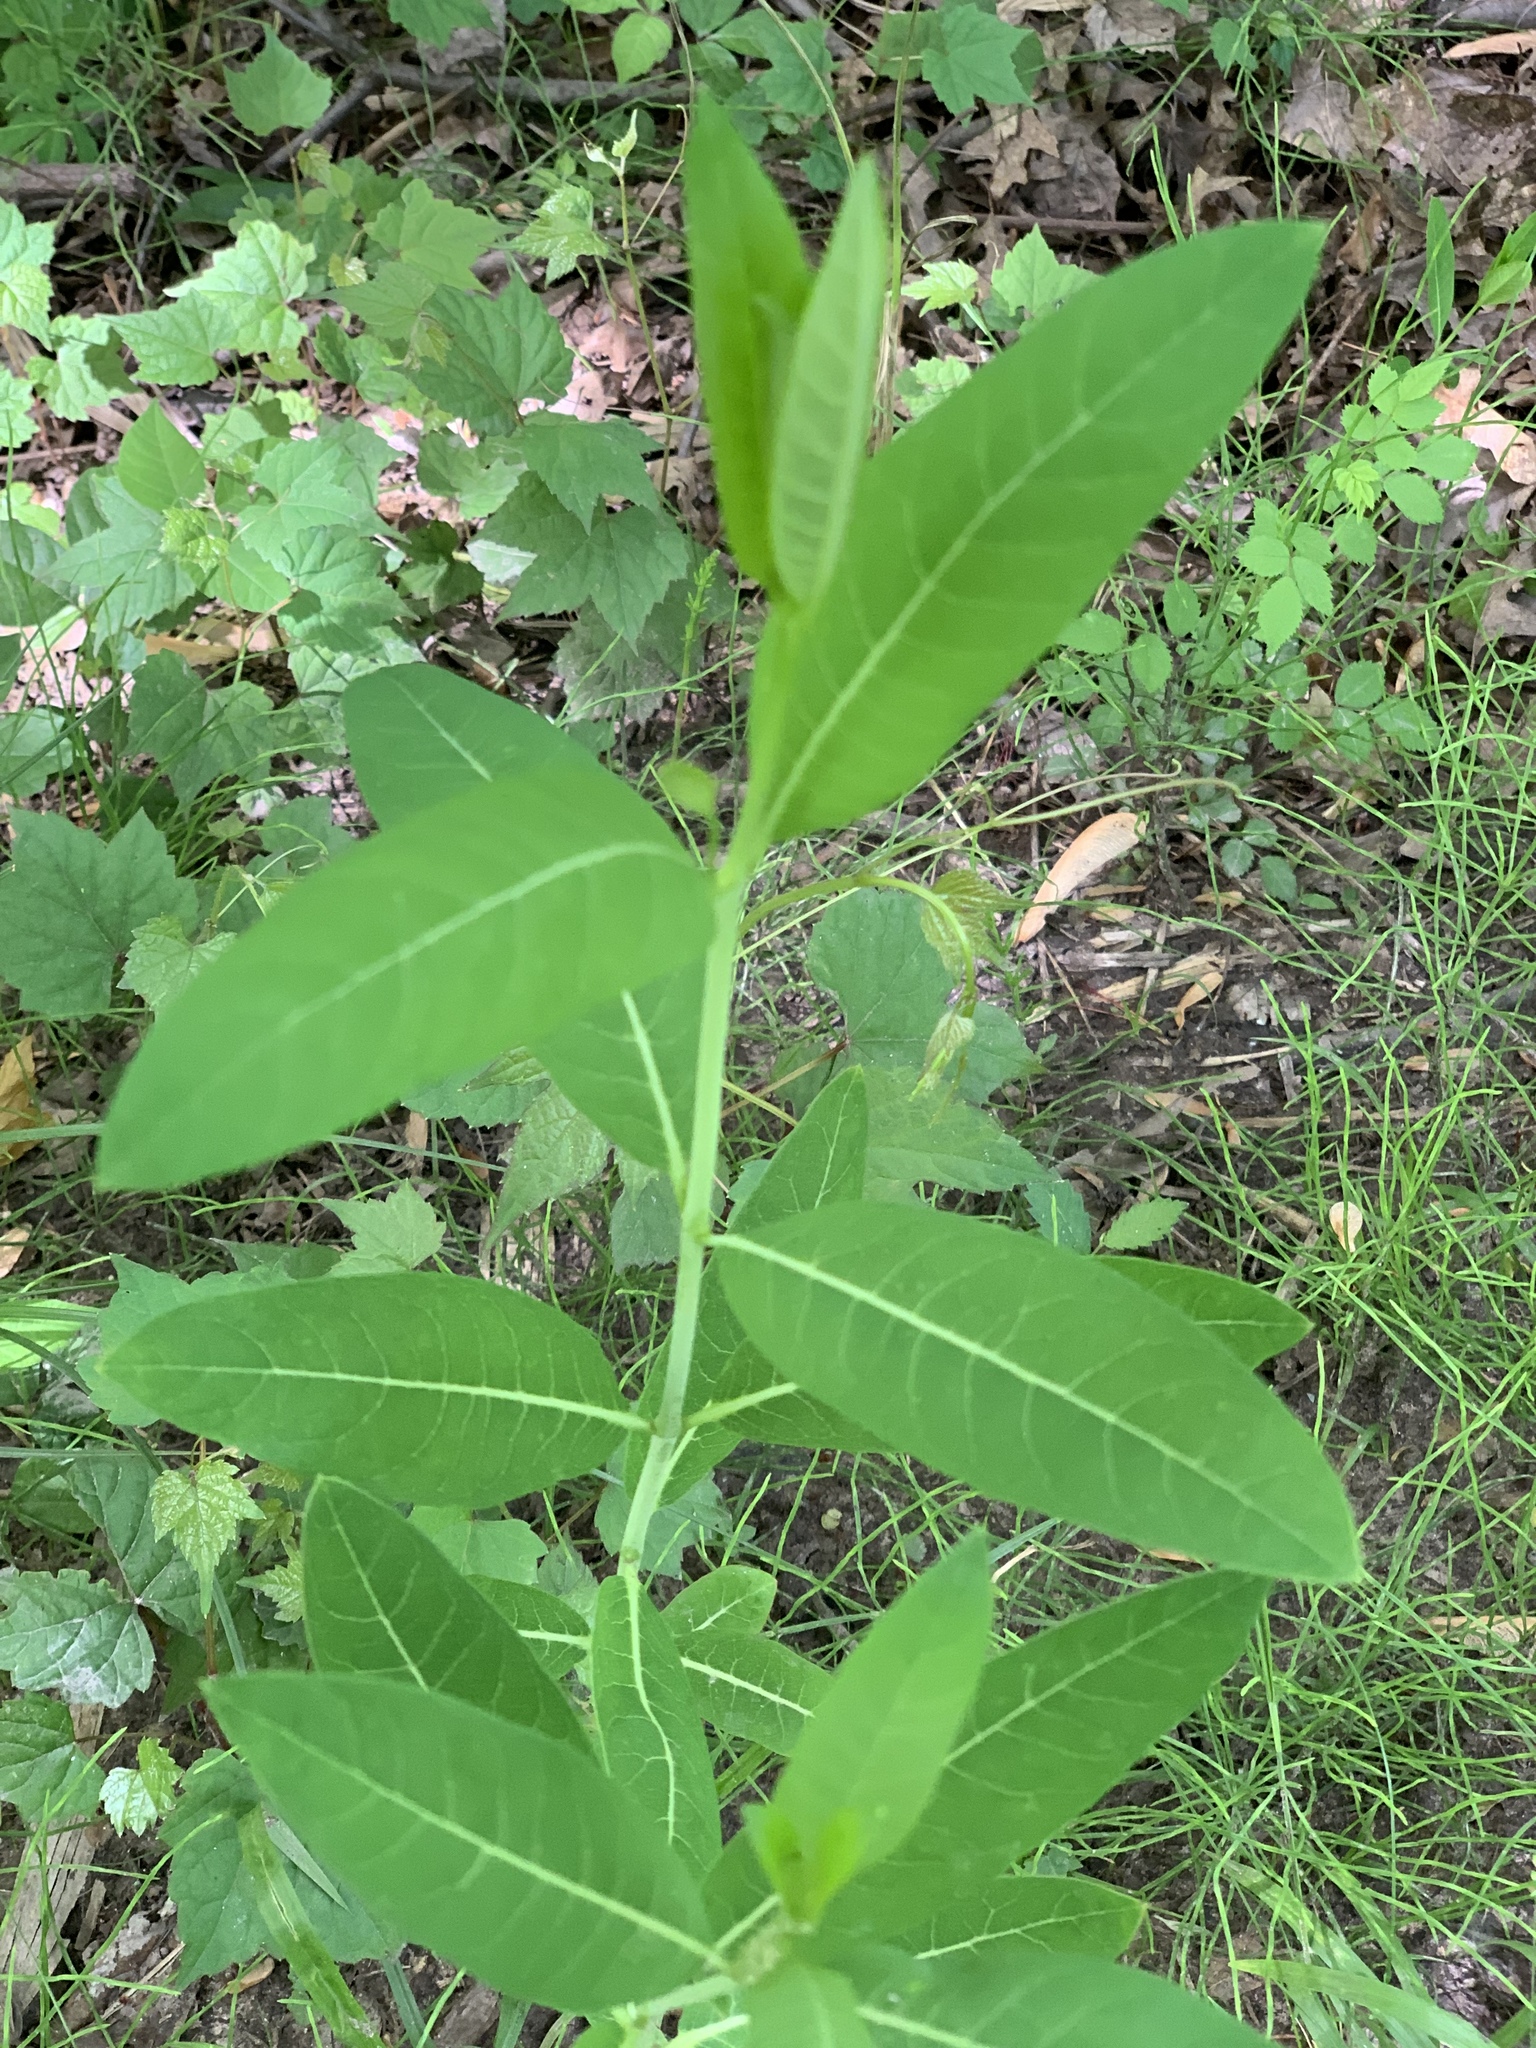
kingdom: Plantae
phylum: Tracheophyta
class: Magnoliopsida
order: Gentianales
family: Apocynaceae
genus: Apocynum
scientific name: Apocynum cannabinum
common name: Hemp dogbane
